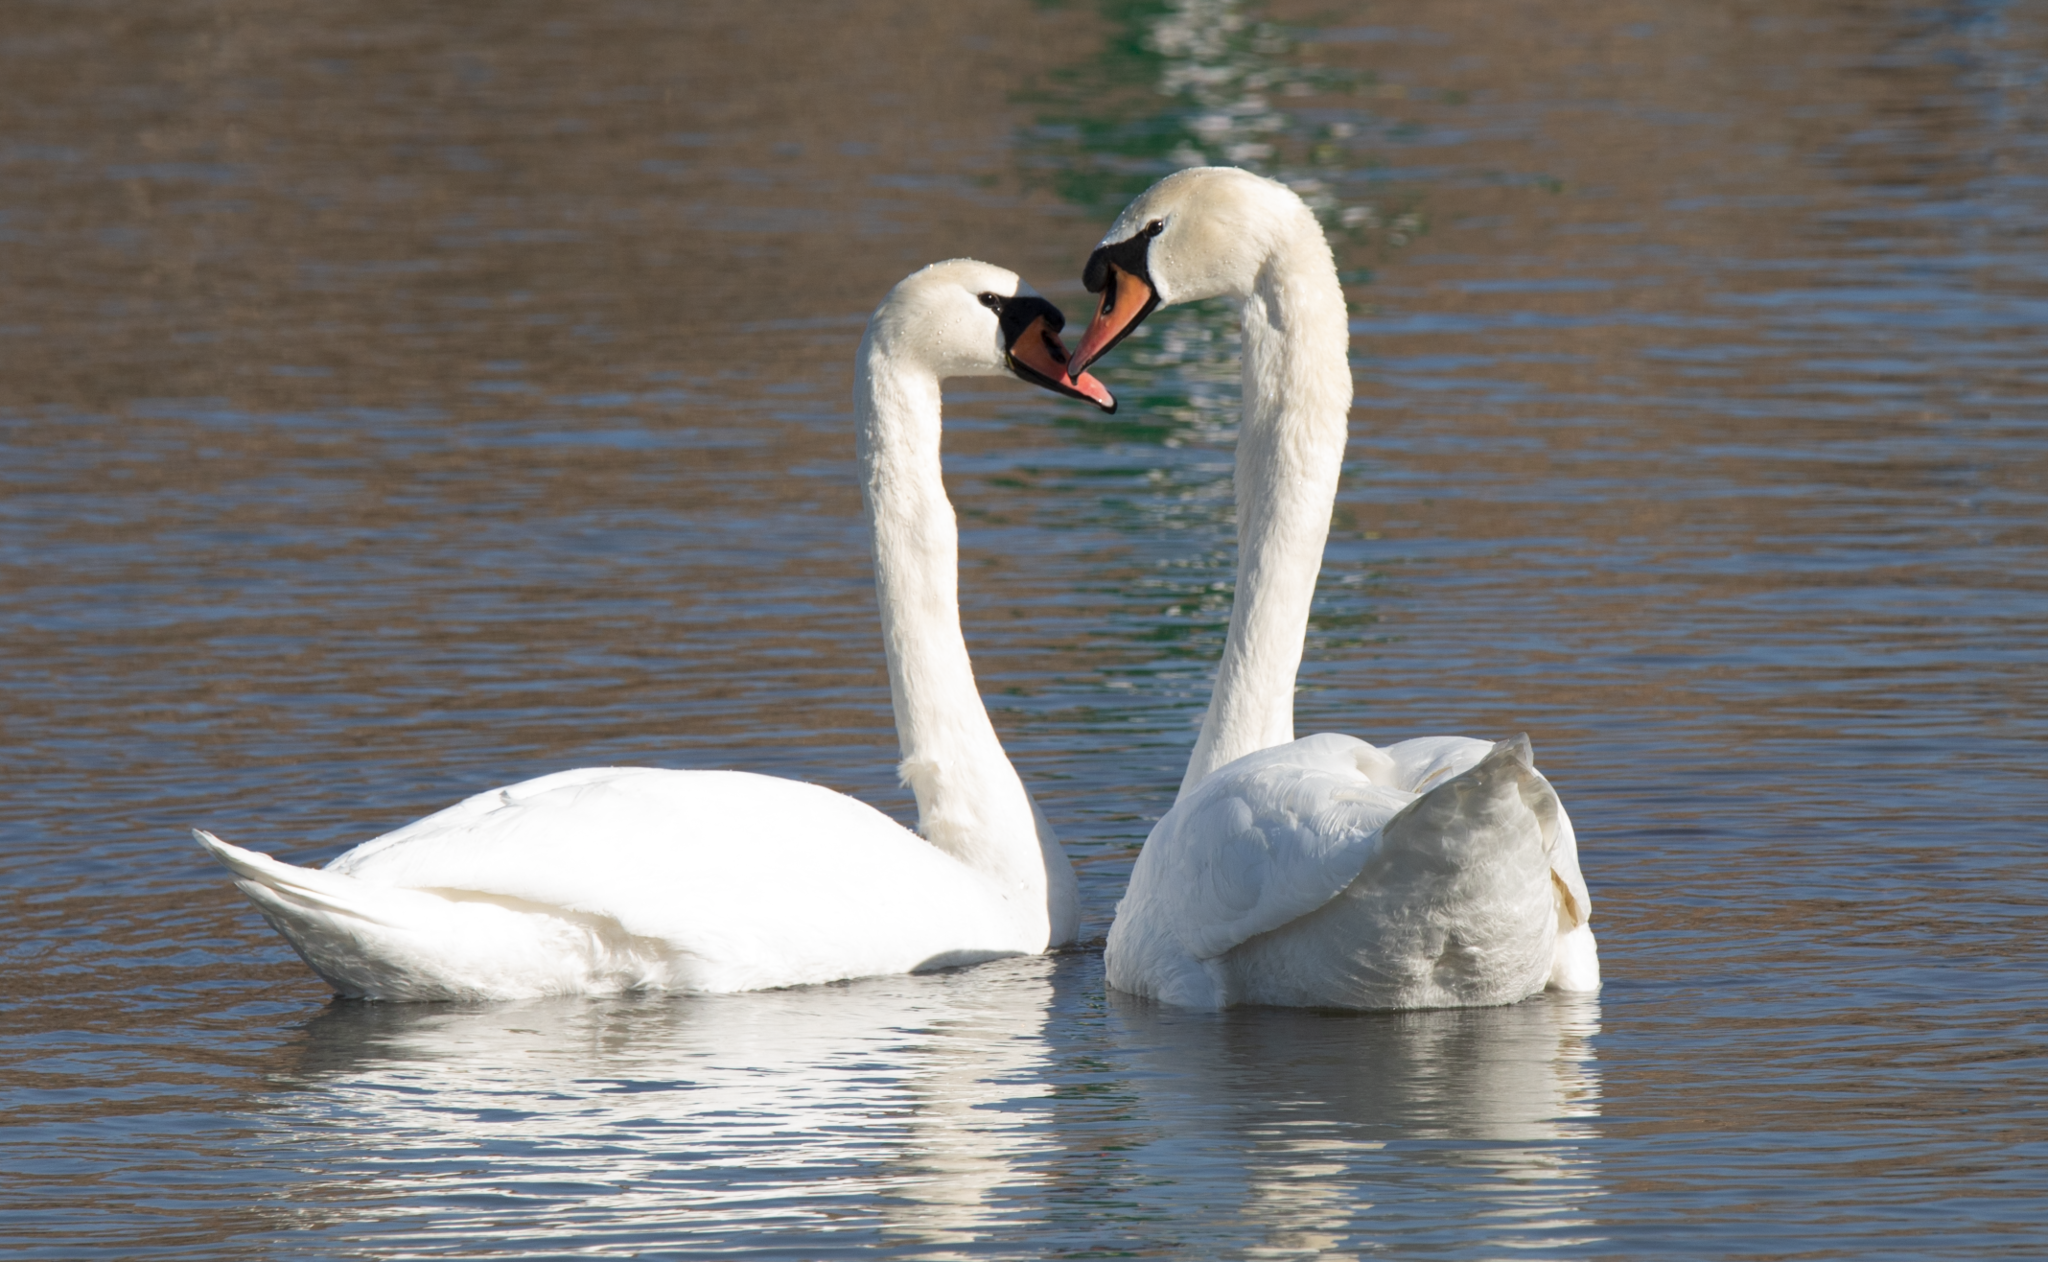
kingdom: Animalia
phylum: Chordata
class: Aves
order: Anseriformes
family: Anatidae
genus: Cygnus
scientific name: Cygnus olor
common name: Mute swan
